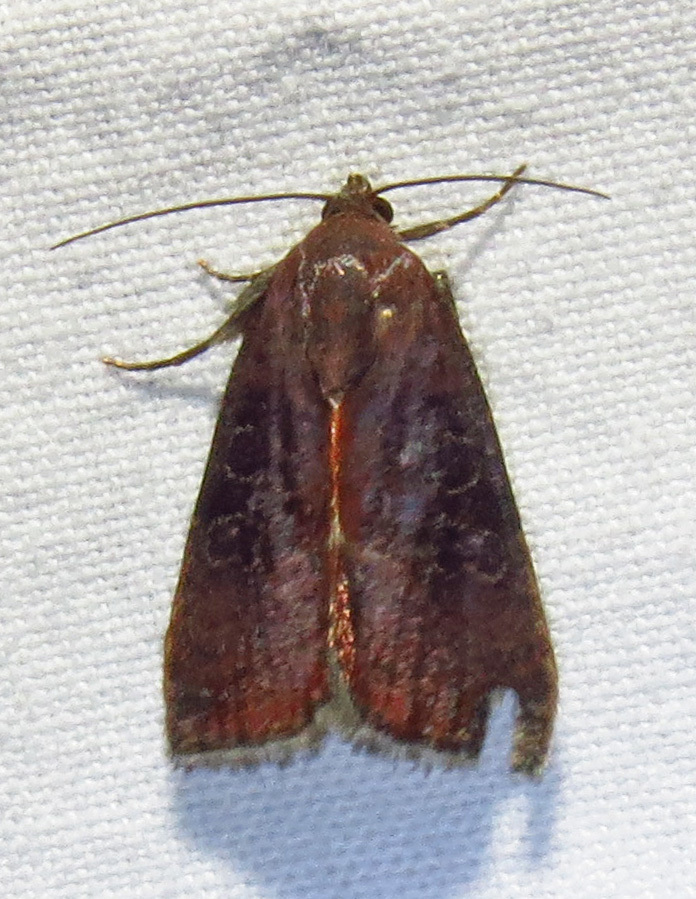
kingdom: Animalia
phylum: Arthropoda
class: Insecta
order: Lepidoptera
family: Noctuidae
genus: Galgula
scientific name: Galgula partita
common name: Wedgeling
